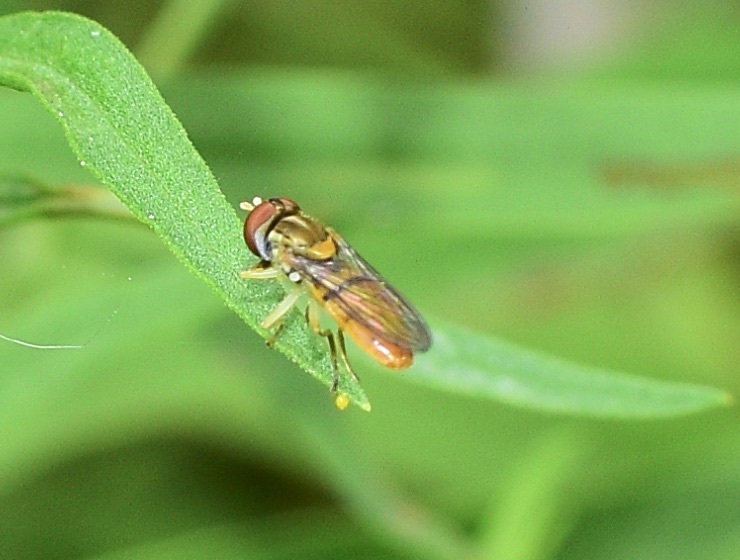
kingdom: Animalia
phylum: Arthropoda
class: Insecta
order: Diptera
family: Syrphidae
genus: Toxomerus
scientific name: Toxomerus
